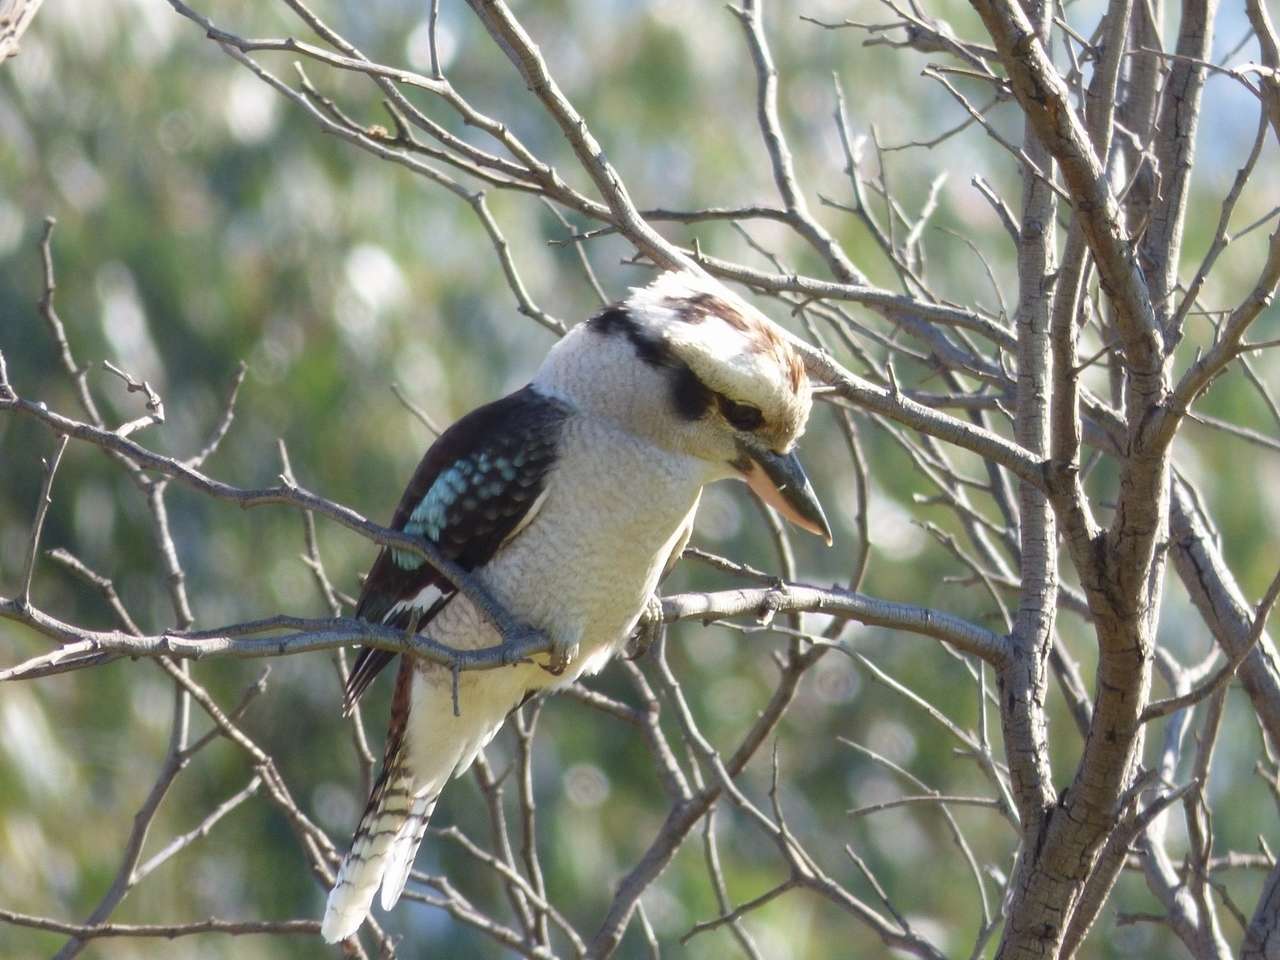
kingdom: Animalia
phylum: Chordata
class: Aves
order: Coraciiformes
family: Alcedinidae
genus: Dacelo
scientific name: Dacelo novaeguineae
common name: Laughing kookaburra
